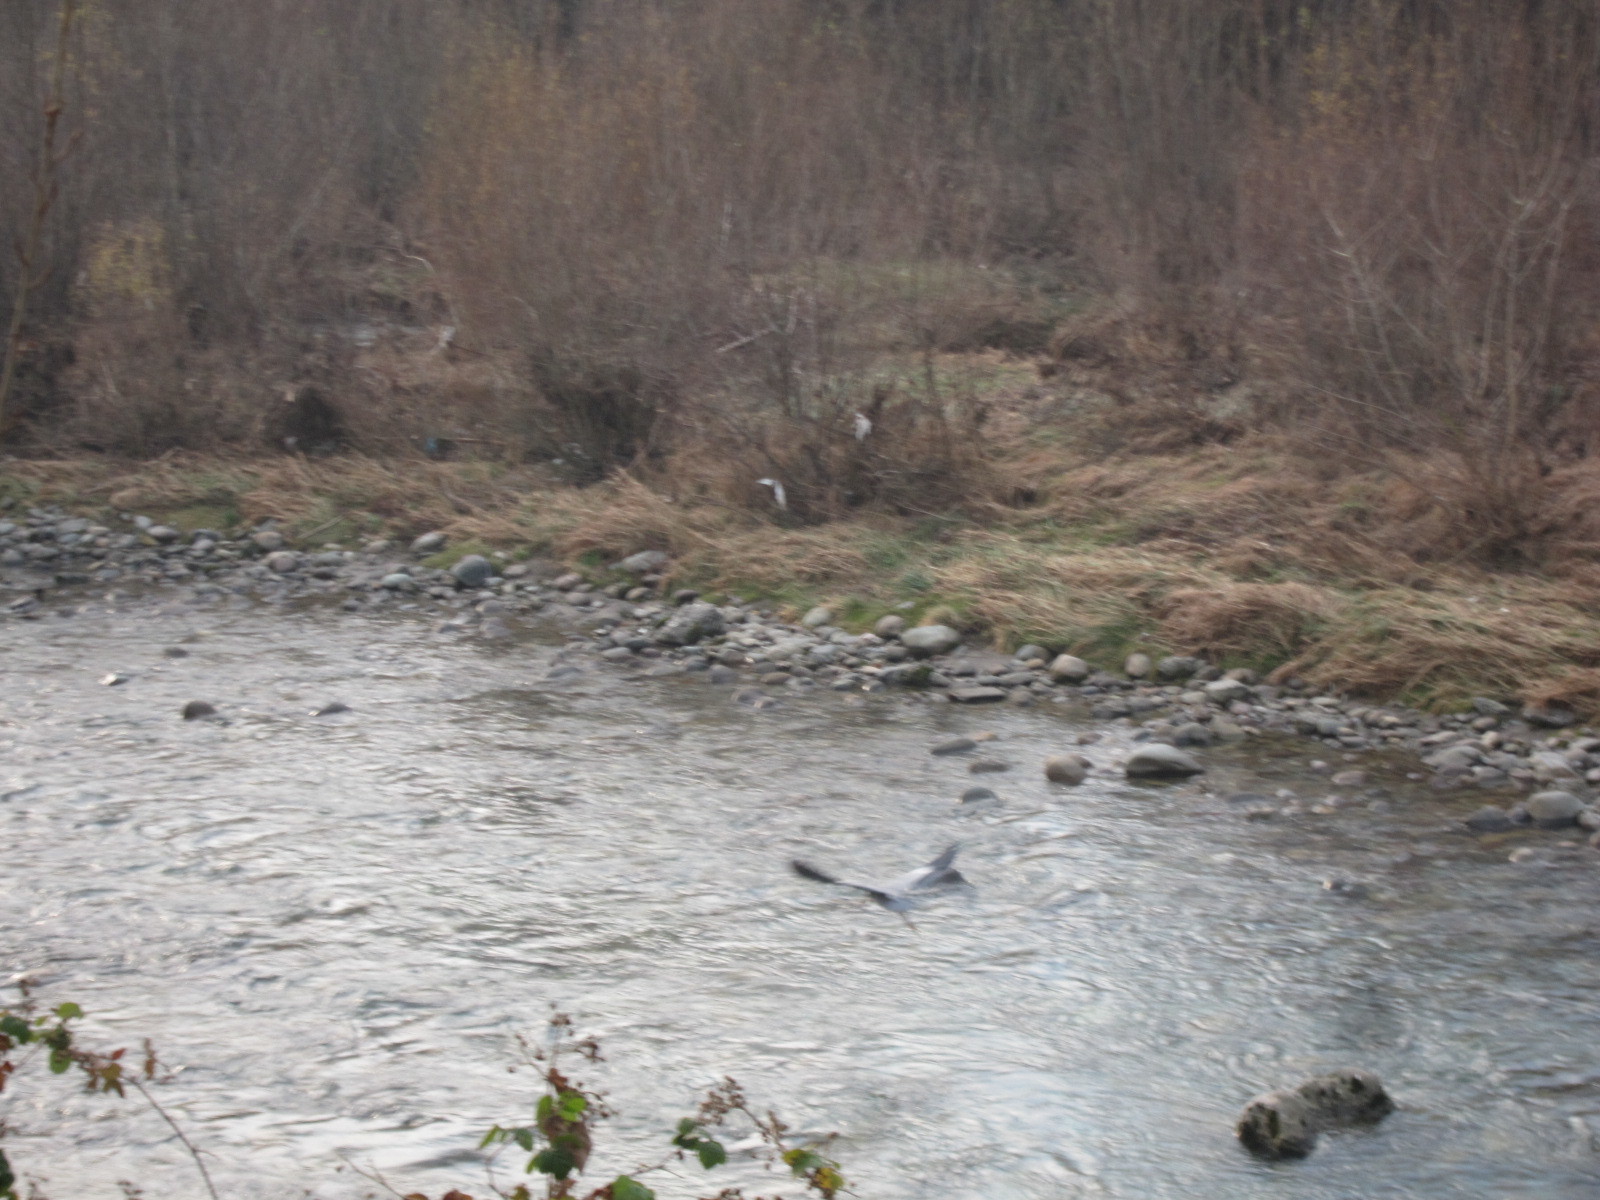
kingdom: Animalia
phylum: Chordata
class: Aves
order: Pelecaniformes
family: Ardeidae
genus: Ardea
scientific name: Ardea cinerea
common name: Grey heron
